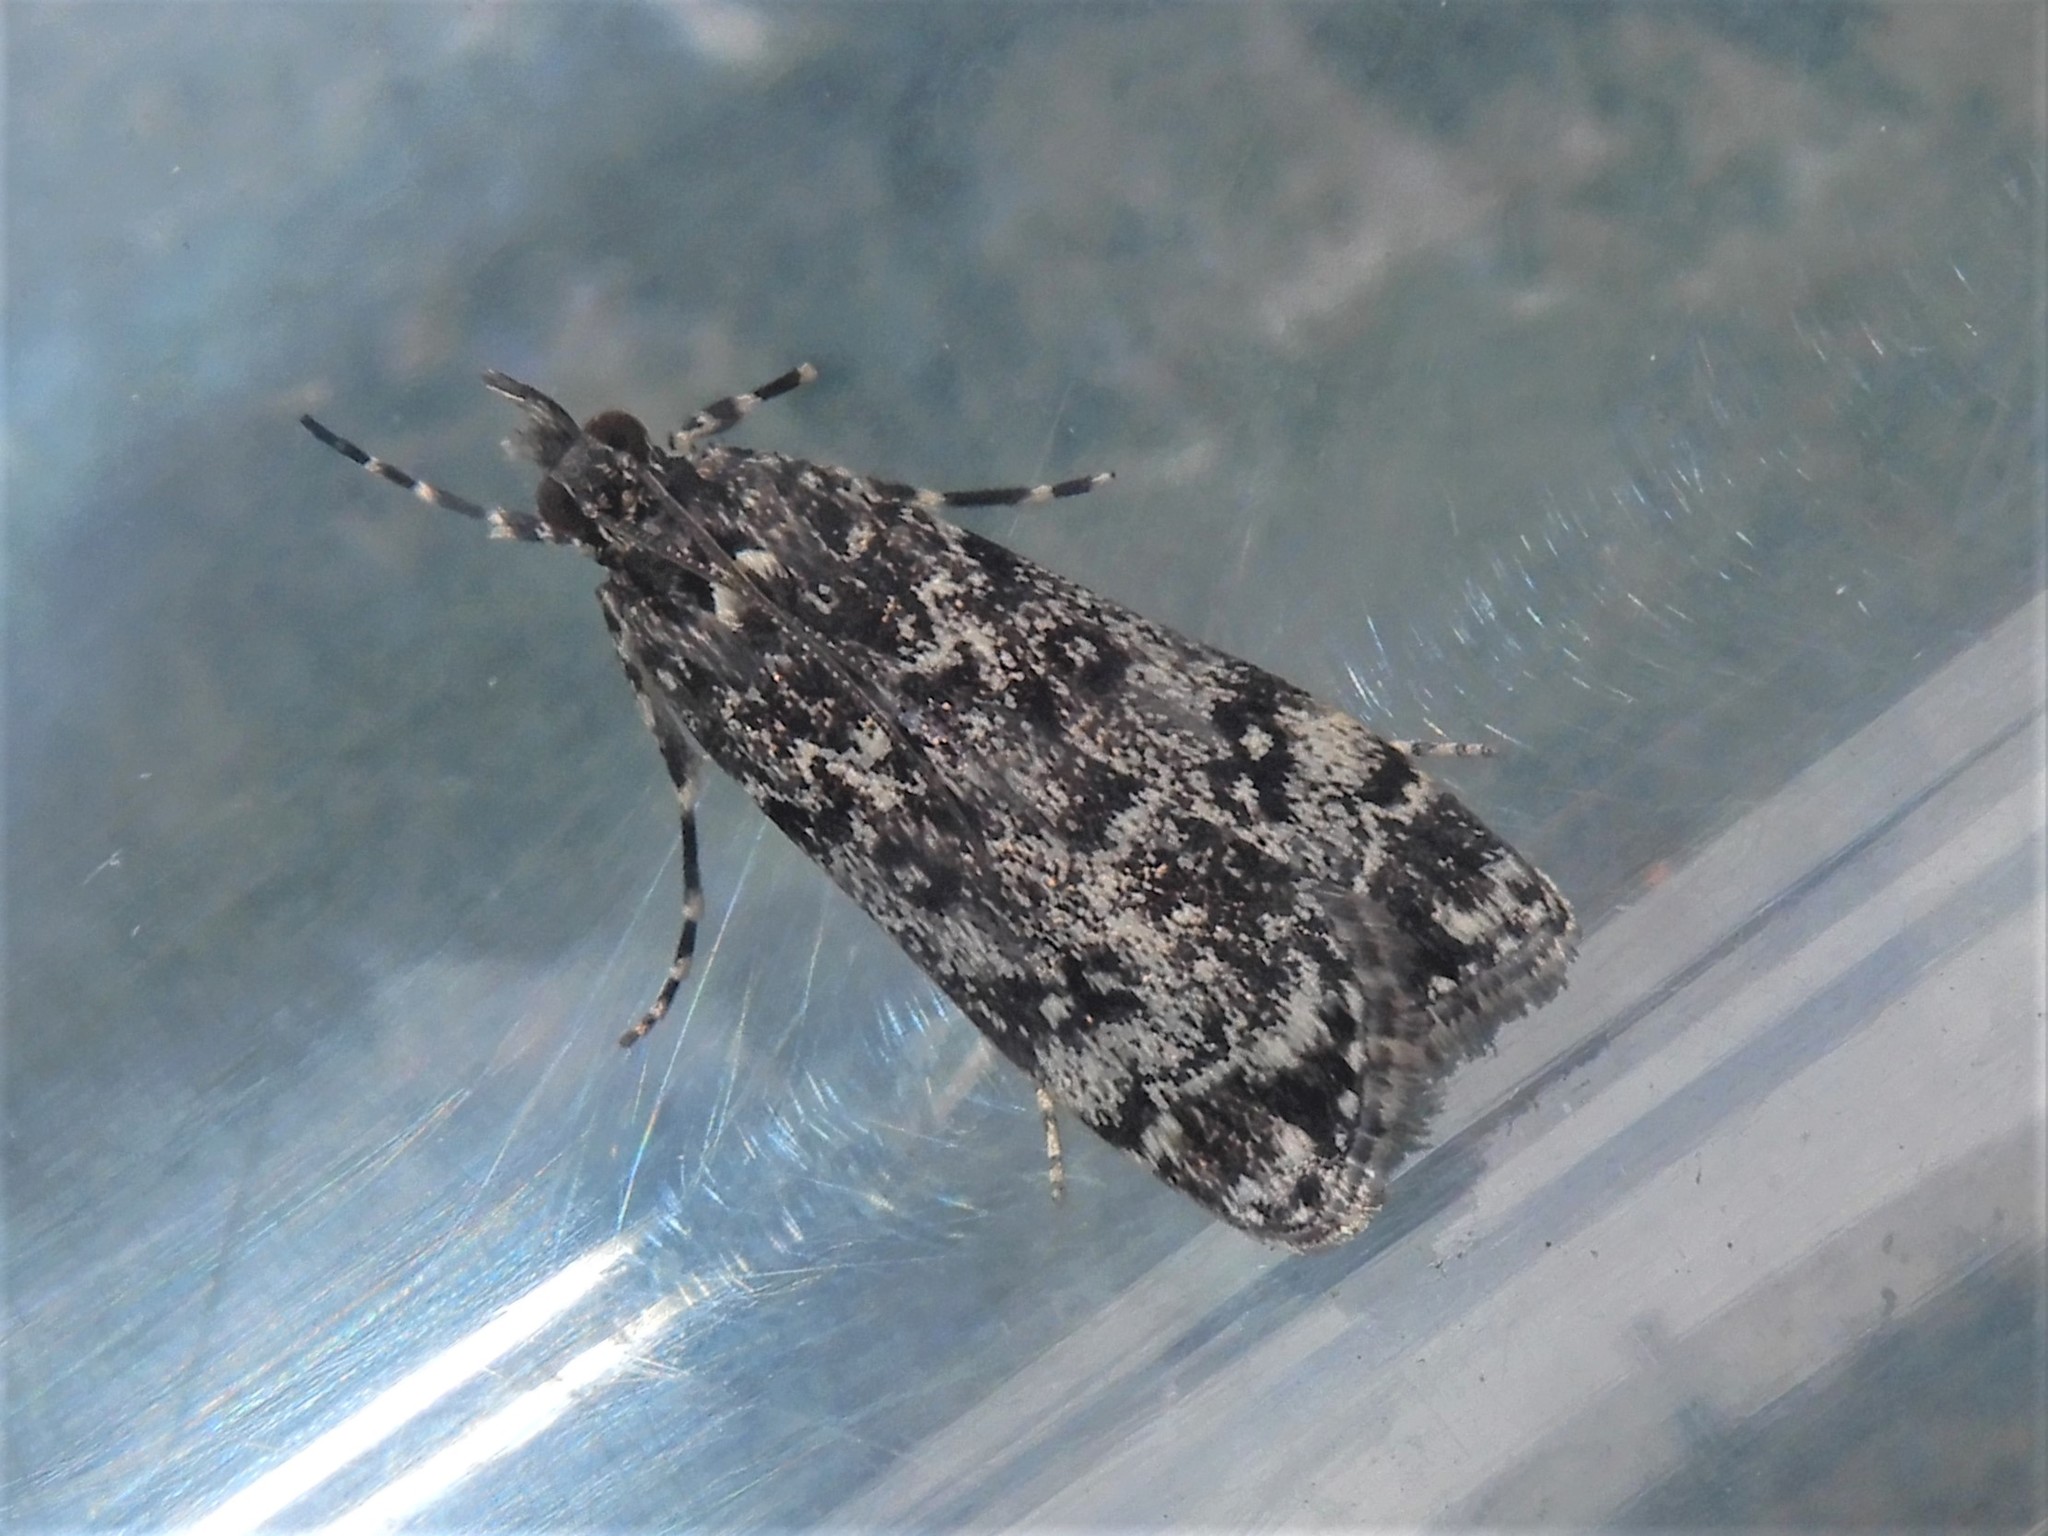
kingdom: Animalia
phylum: Arthropoda
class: Insecta
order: Lepidoptera
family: Crambidae
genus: Eudonia
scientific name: Eudonia philerga
